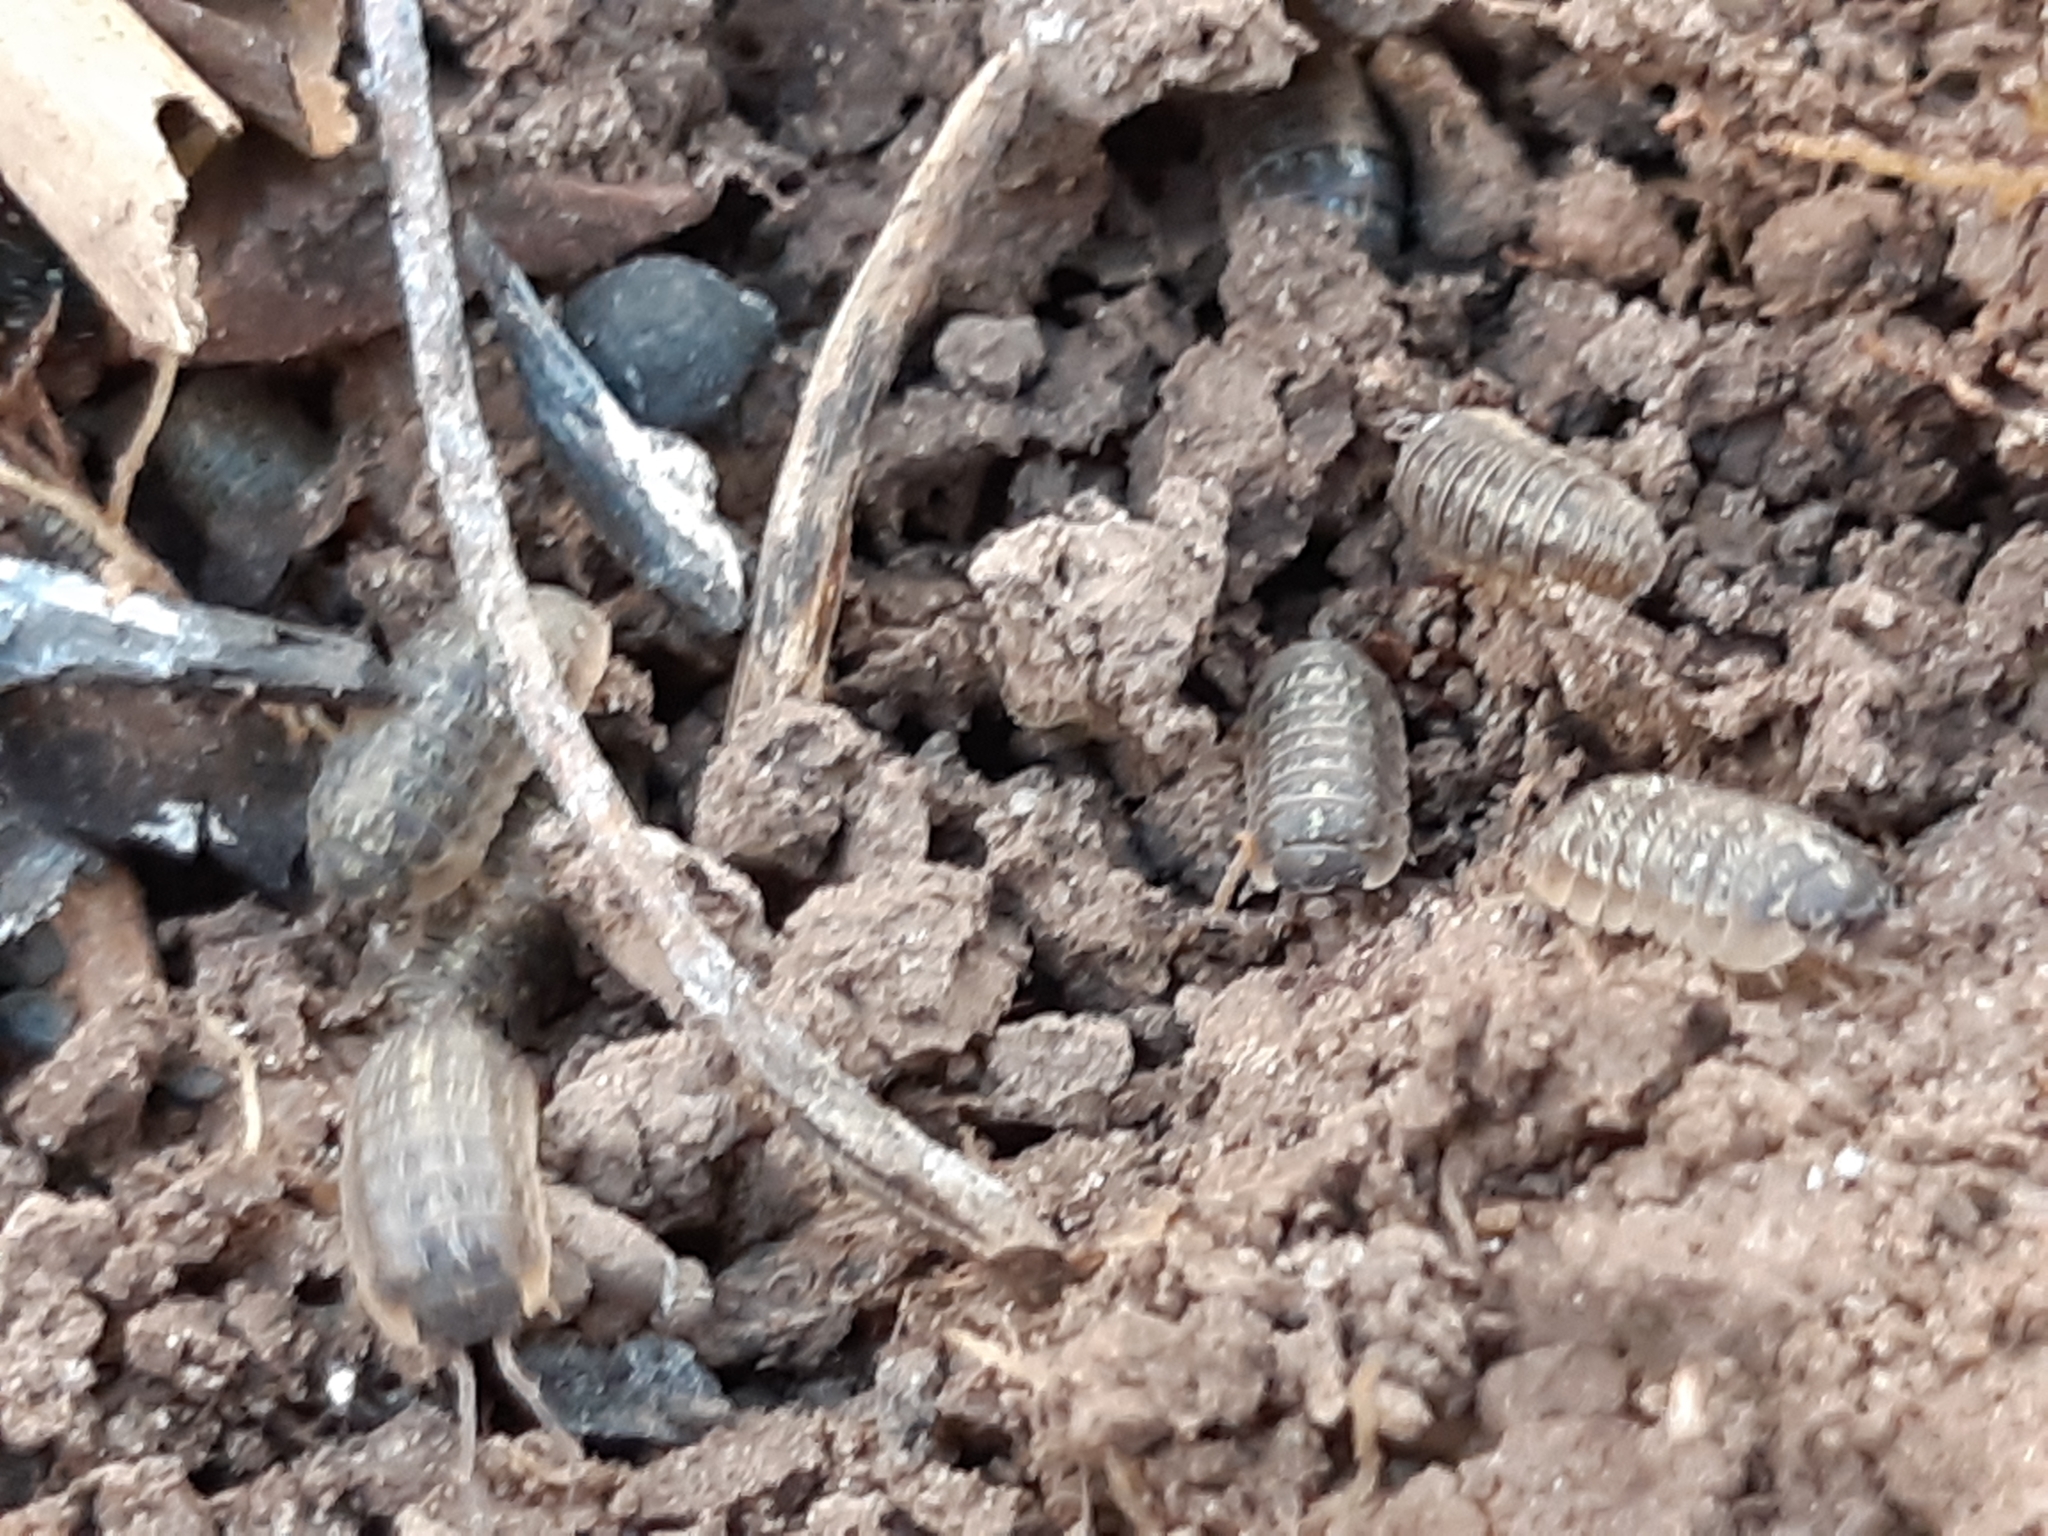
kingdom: Animalia
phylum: Arthropoda
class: Malacostraca
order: Isopoda
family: Armadillidiidae
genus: Armadillidium
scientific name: Armadillidium versicolor
